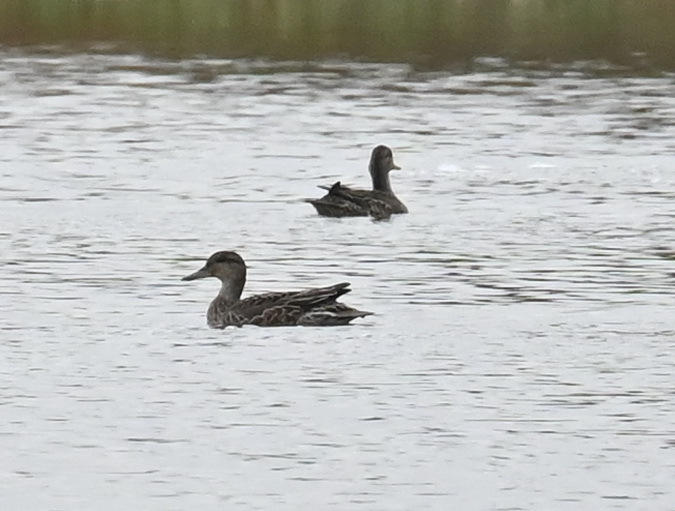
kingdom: Animalia
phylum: Chordata
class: Aves
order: Anseriformes
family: Anatidae
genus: Anas
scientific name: Anas crecca
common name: Eurasian teal
